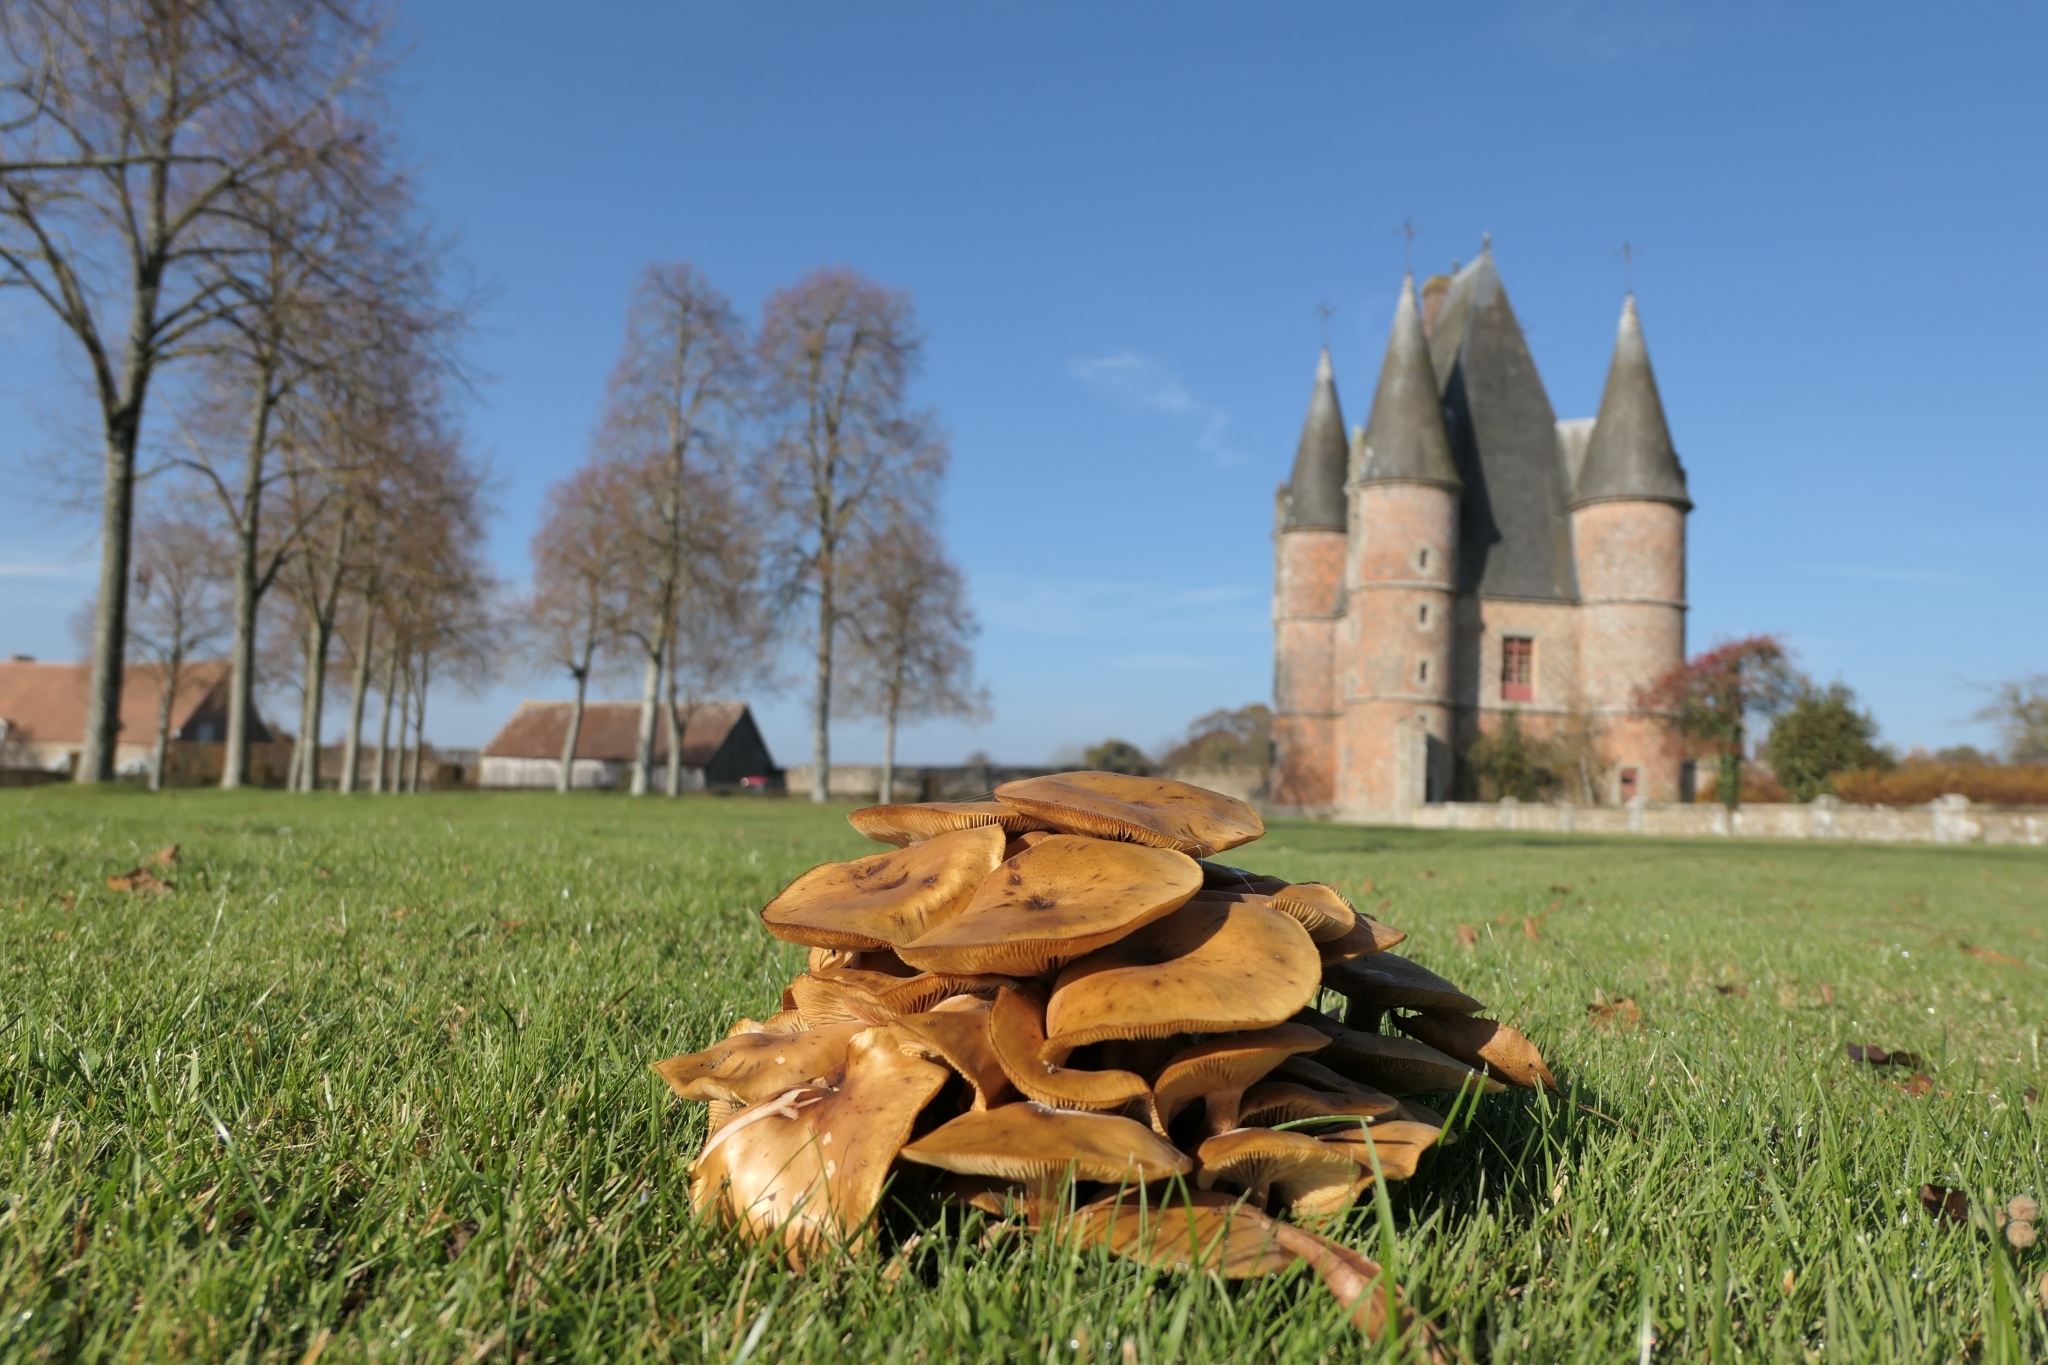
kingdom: Fungi
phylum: Basidiomycota
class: Agaricomycetes
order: Agaricales
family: Physalacriaceae
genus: Armillaria
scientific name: Armillaria mellea
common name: Honey fungus
